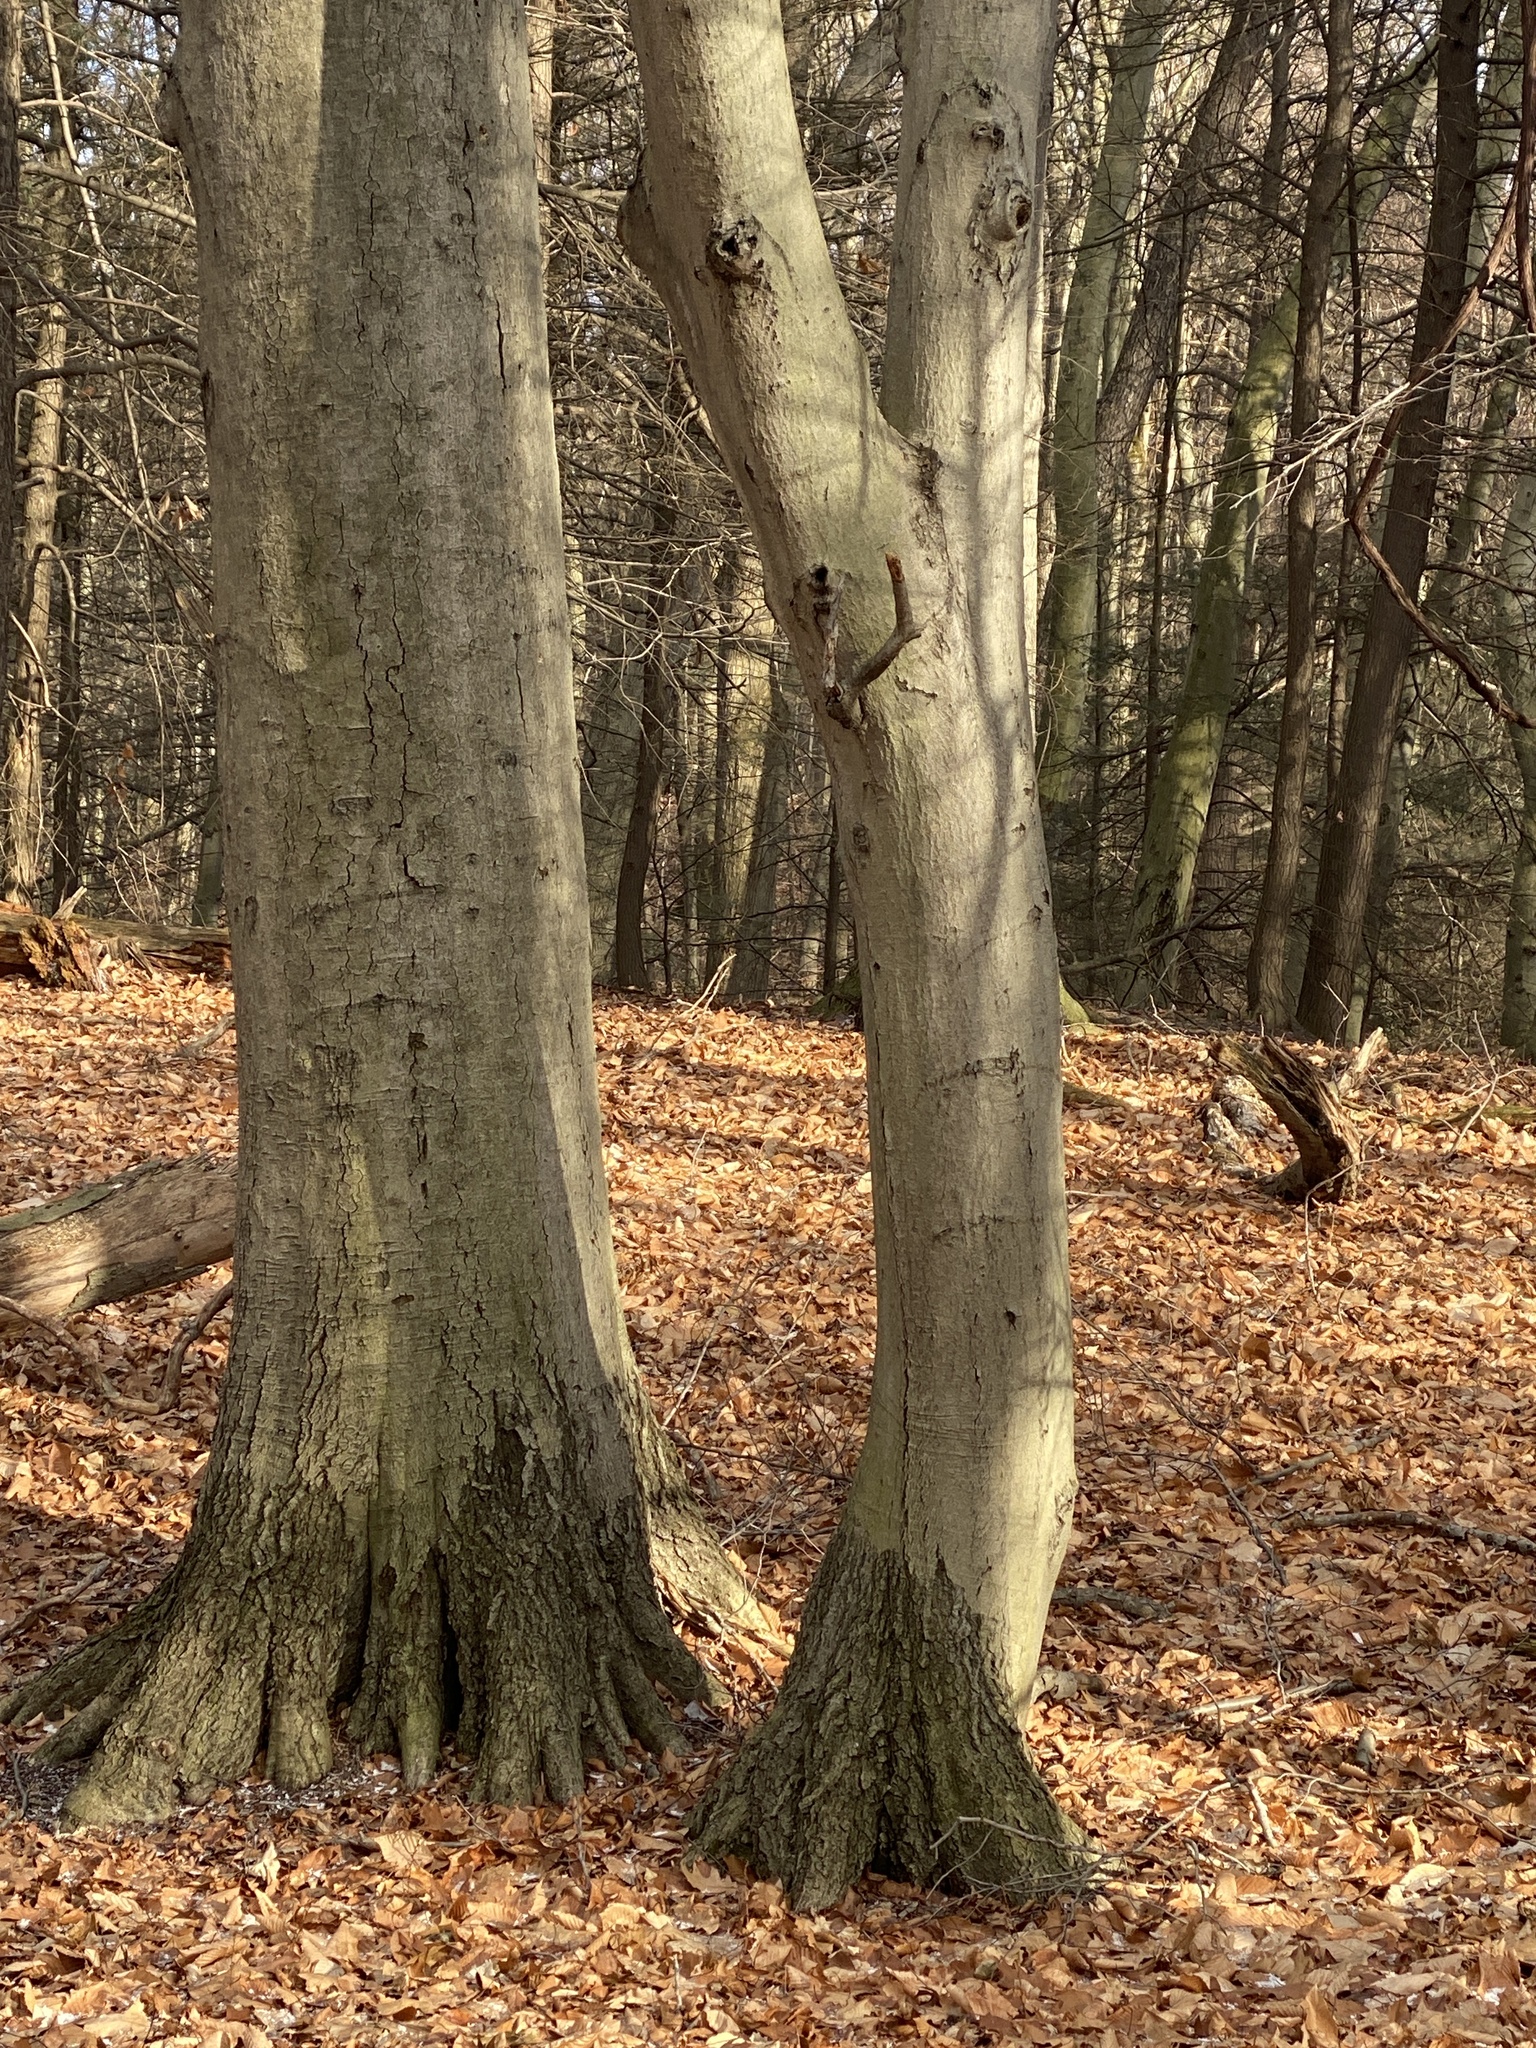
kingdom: Plantae
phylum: Tracheophyta
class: Magnoliopsida
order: Fagales
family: Fagaceae
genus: Fagus
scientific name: Fagus grandifolia
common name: American beech
